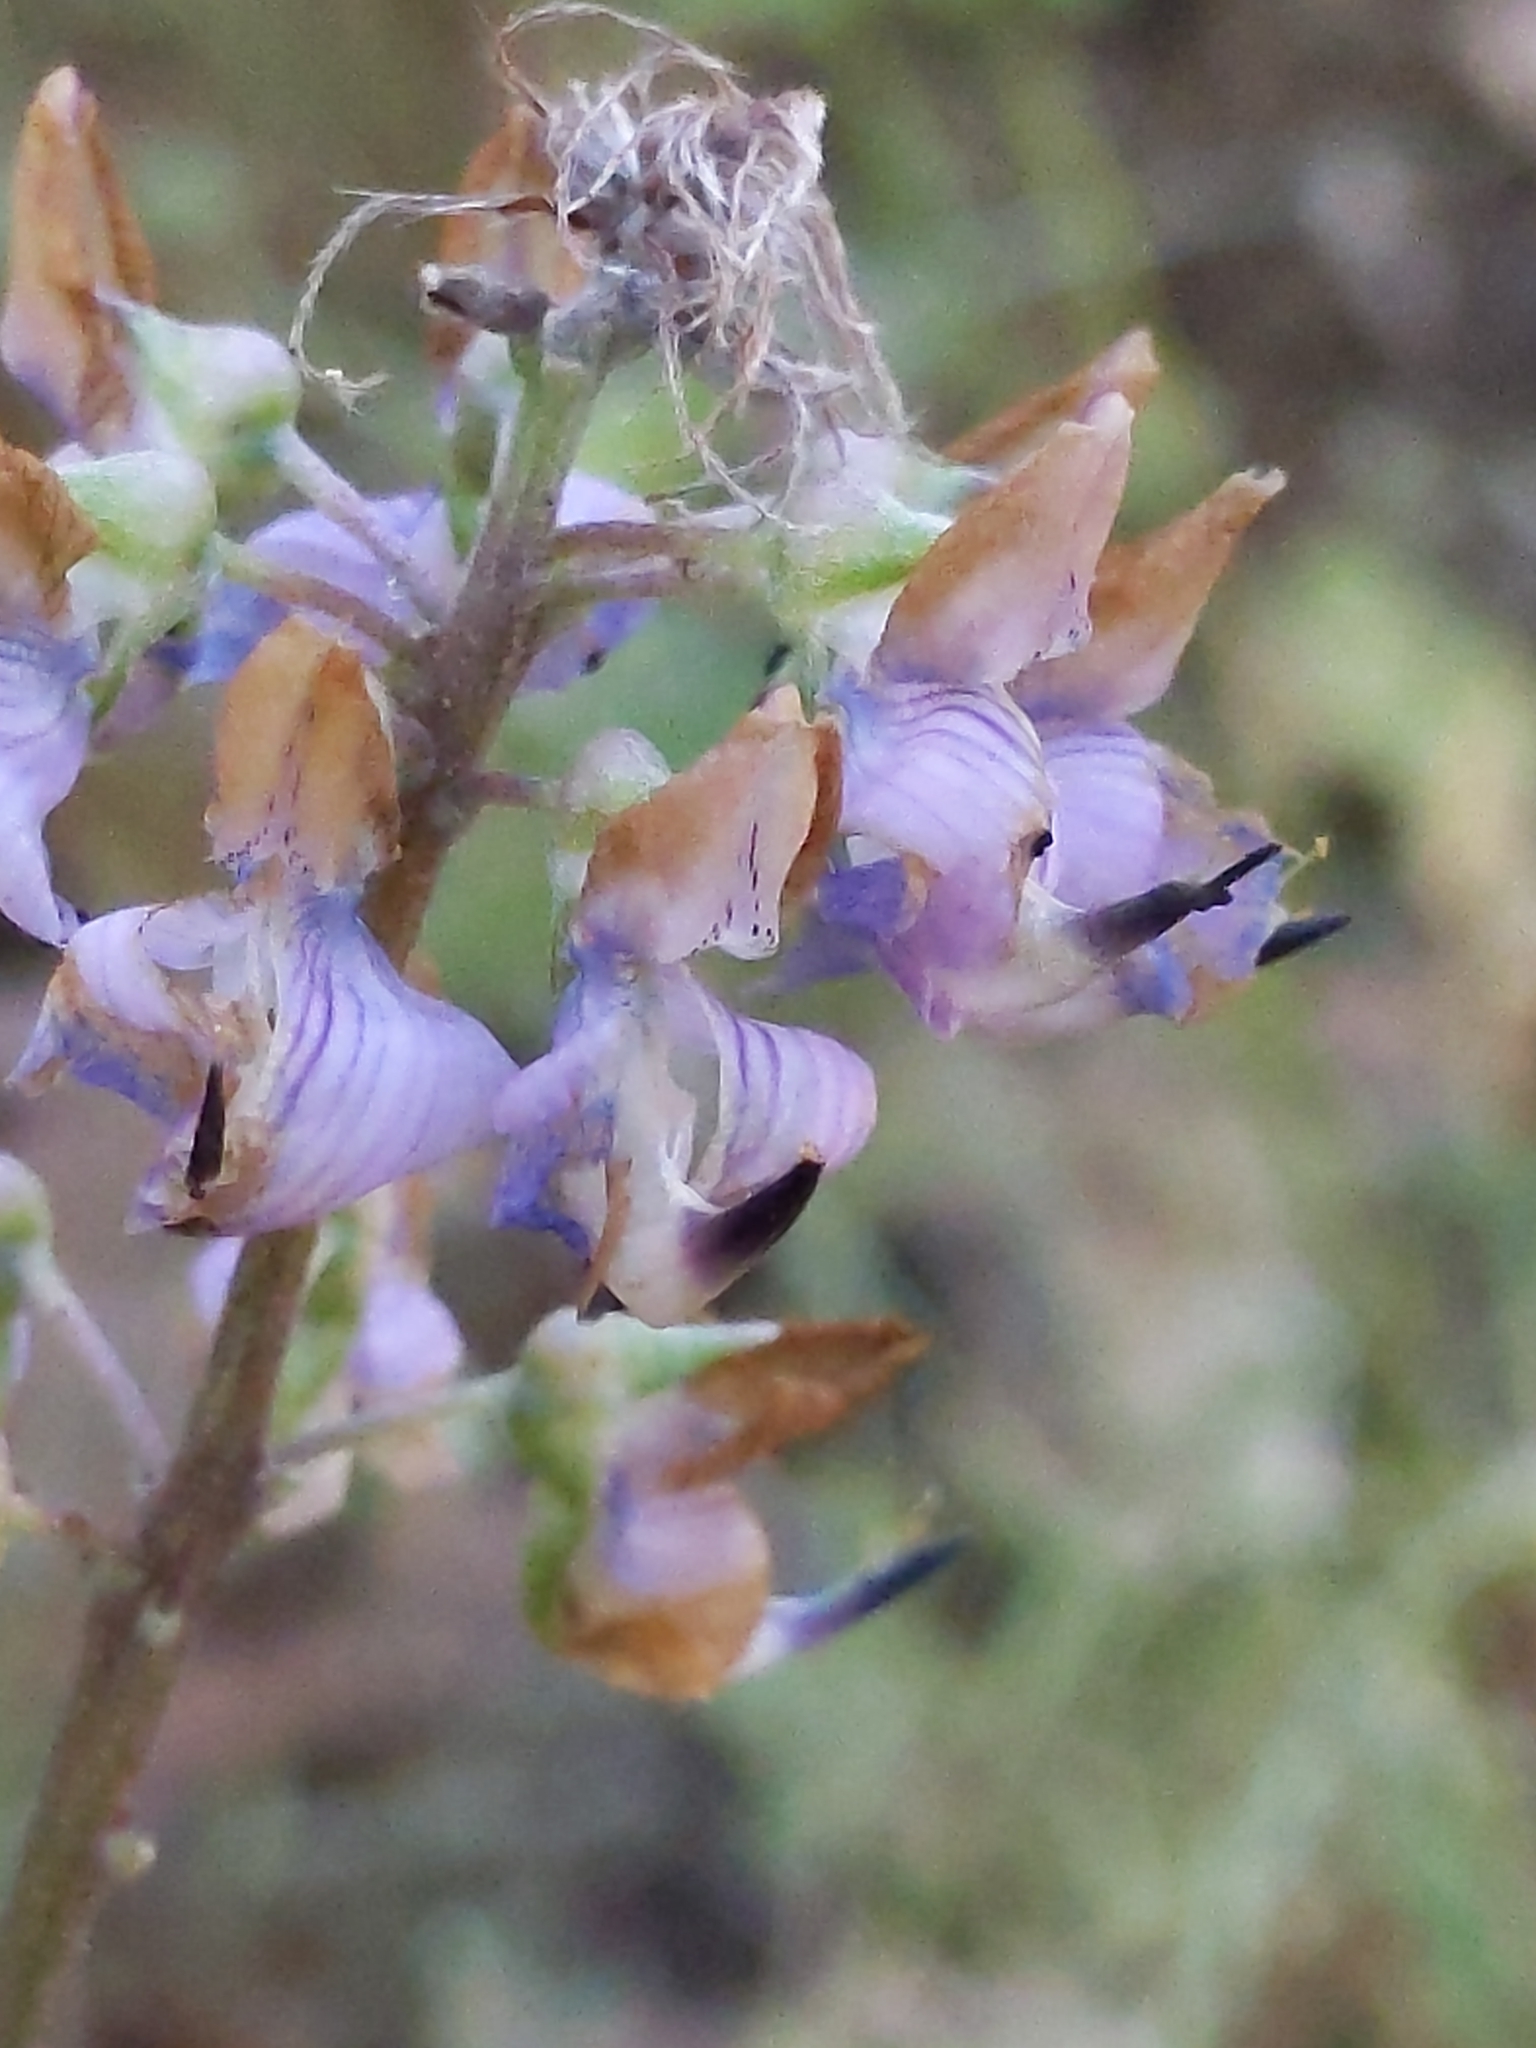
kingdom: Plantae
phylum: Tracheophyta
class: Magnoliopsida
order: Fabales
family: Fabaceae
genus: Lupinus
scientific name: Lupinus latifolius
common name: Broad-leaved lupine
